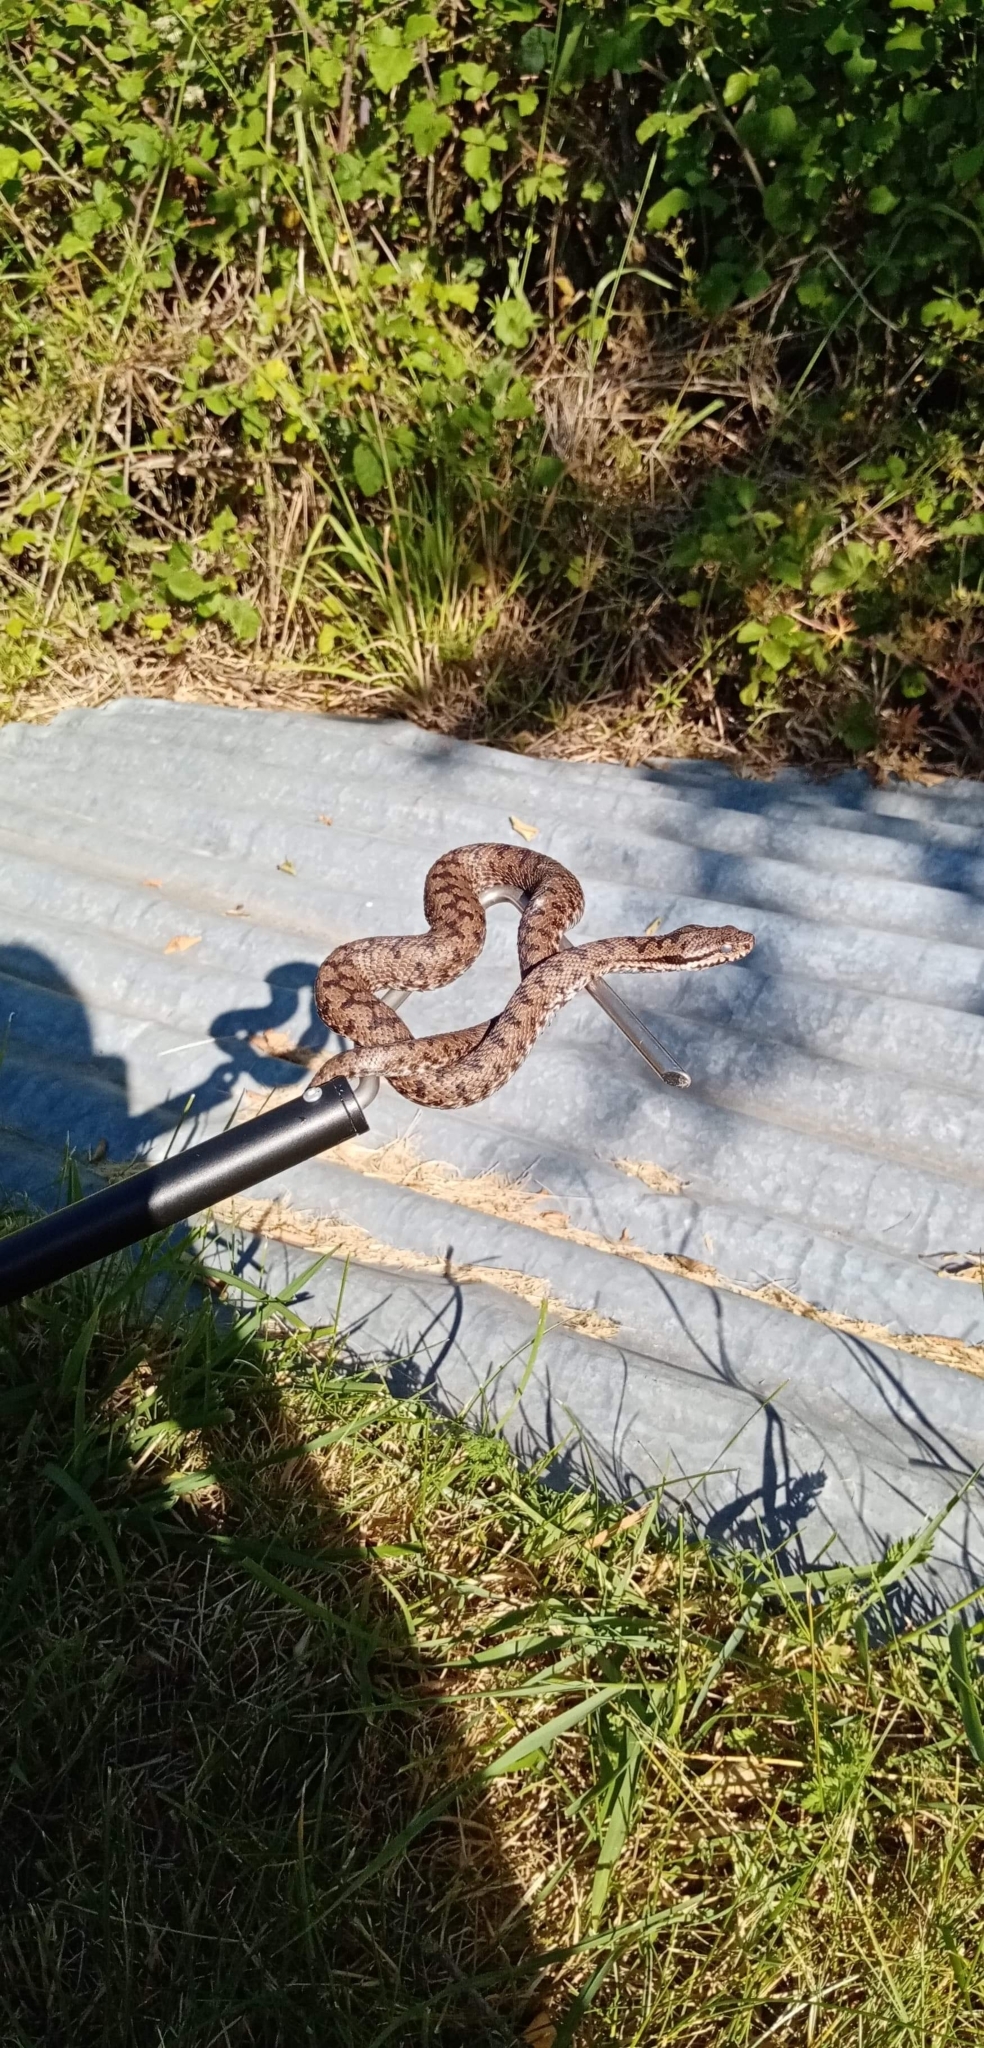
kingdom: Animalia
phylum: Chordata
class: Squamata
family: Viperidae
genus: Vipera
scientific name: Vipera aspis
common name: Asp viper
